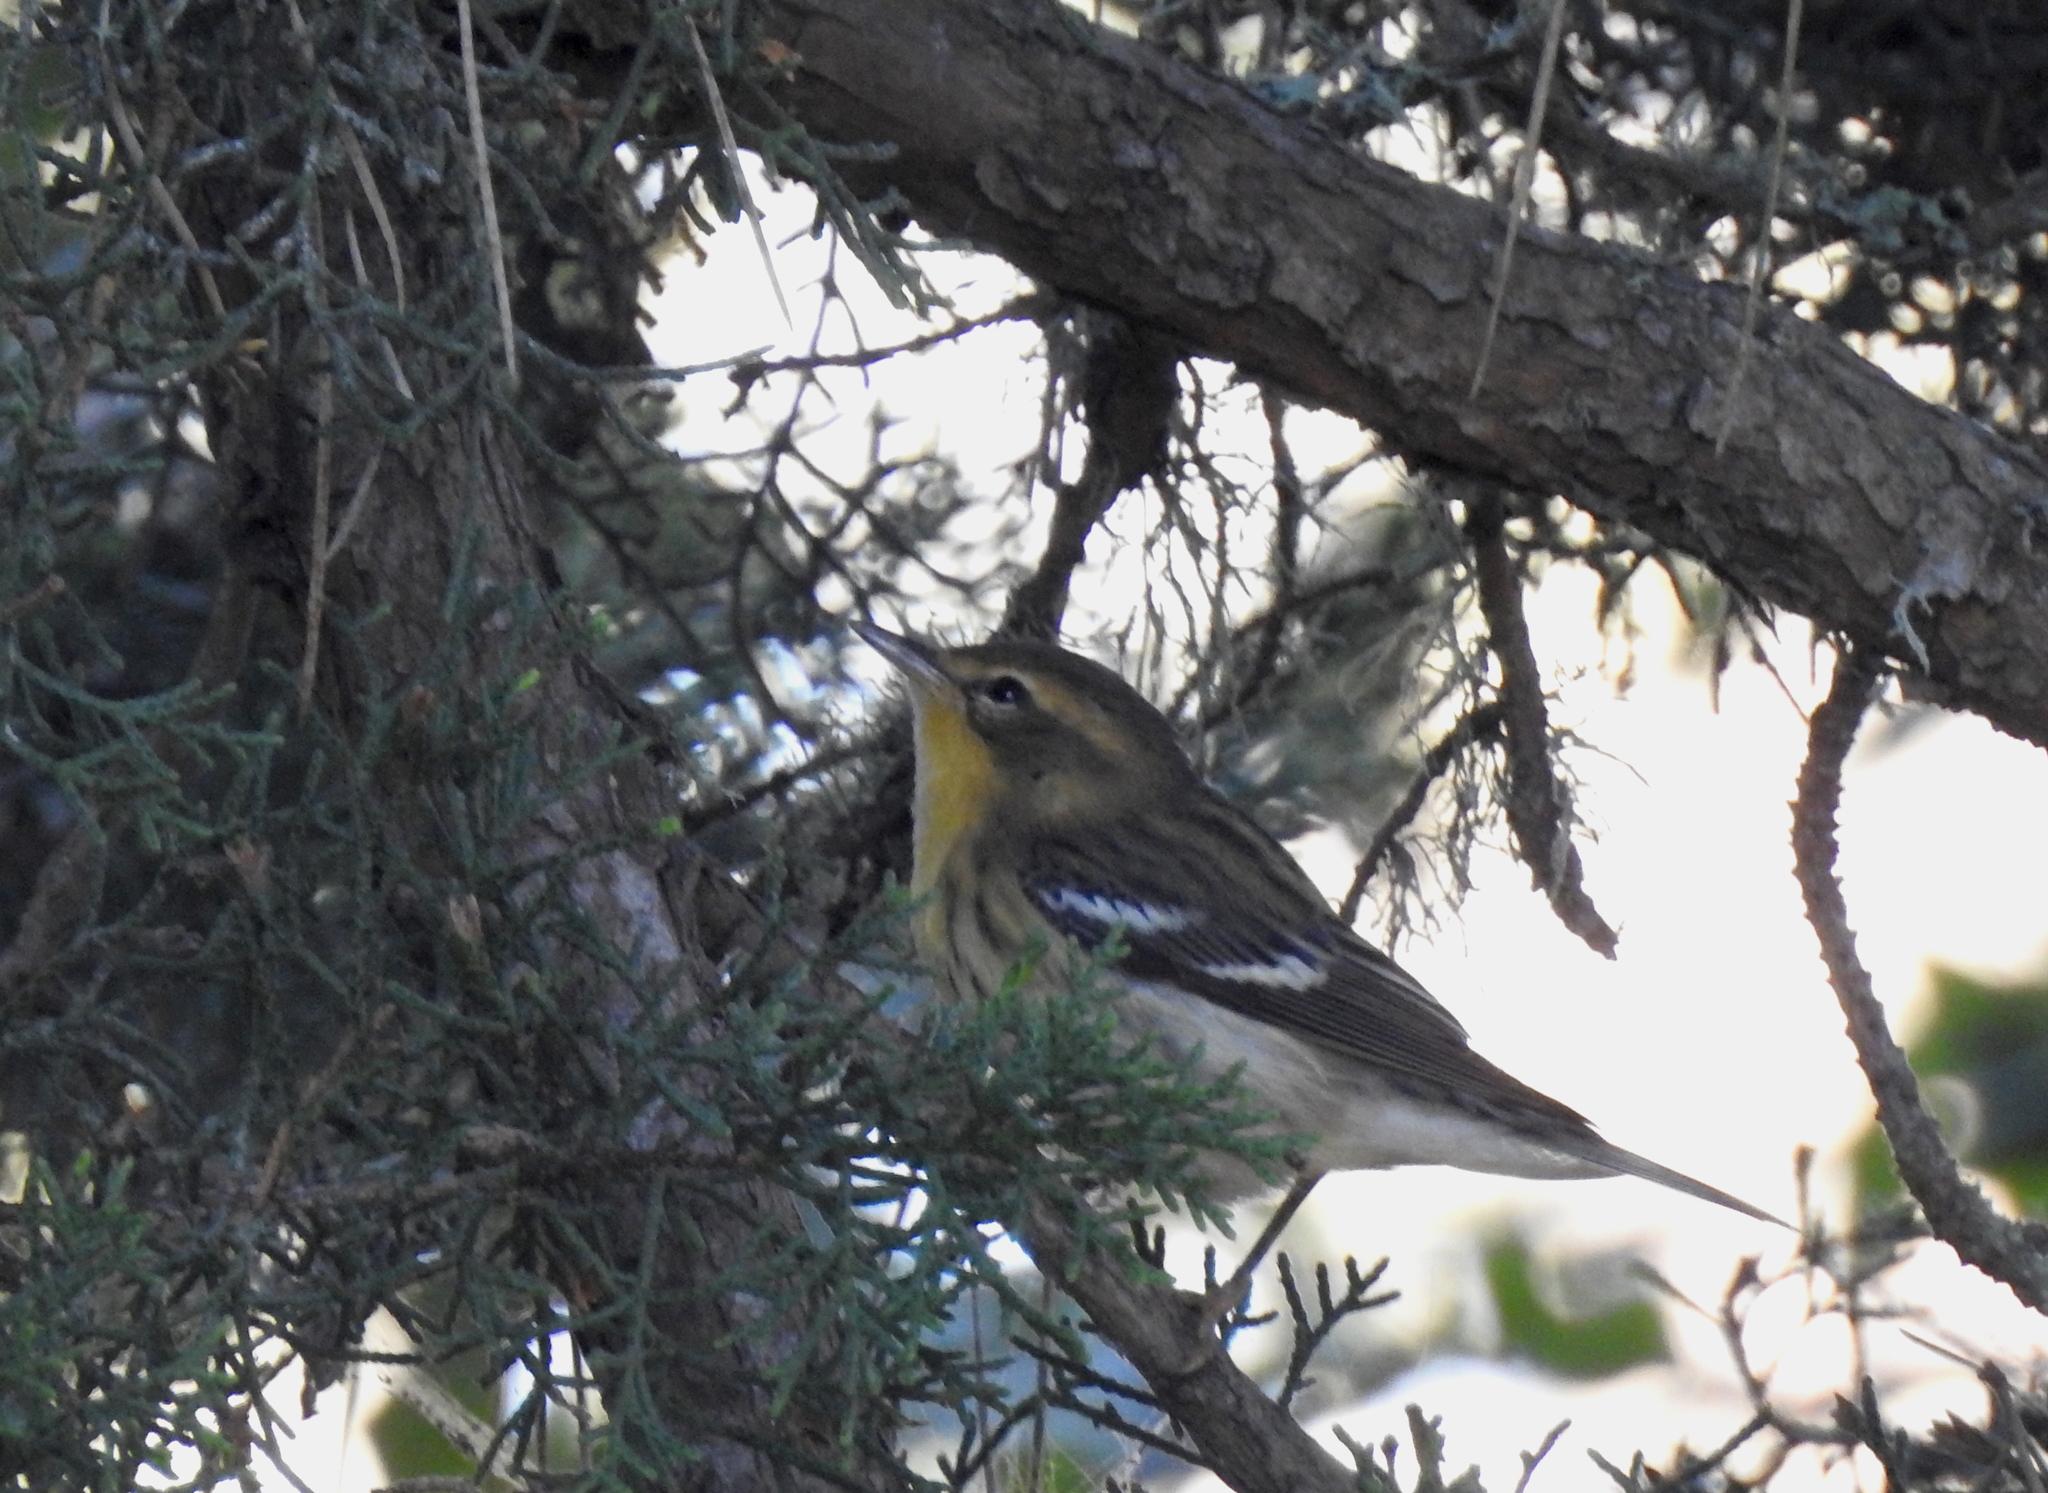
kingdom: Animalia
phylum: Chordata
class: Aves
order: Passeriformes
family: Parulidae
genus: Setophaga
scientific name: Setophaga fusca
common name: Blackburnian warbler
